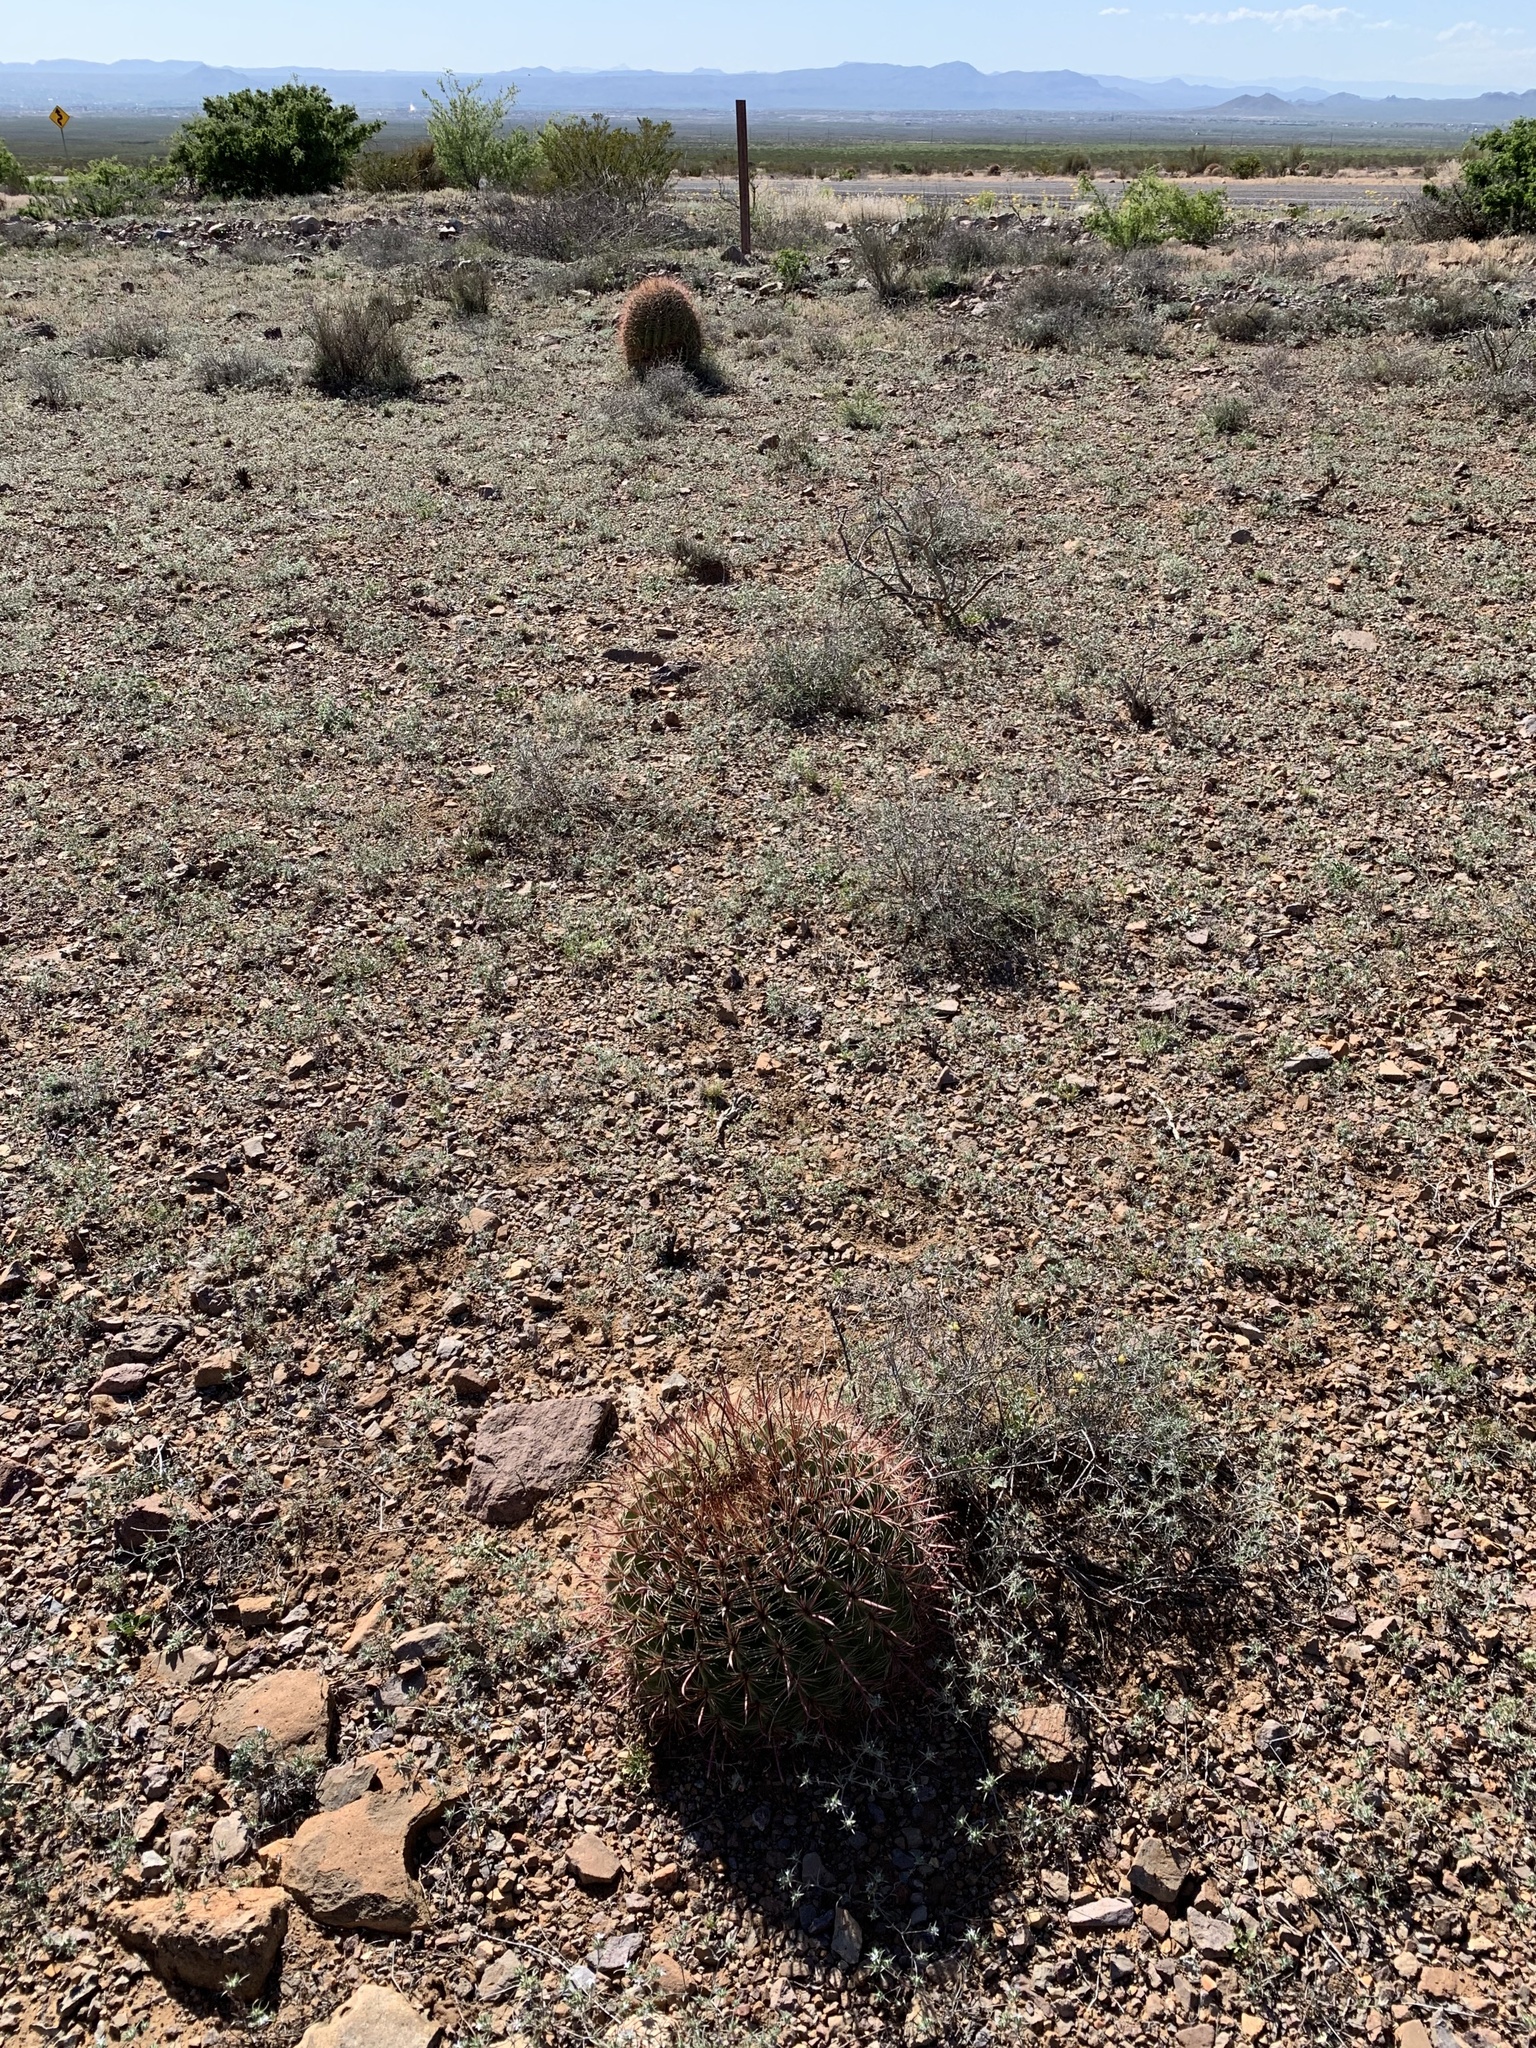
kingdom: Plantae
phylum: Tracheophyta
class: Magnoliopsida
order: Caryophyllales
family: Cactaceae
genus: Ferocactus
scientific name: Ferocactus wislizeni
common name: Candy barrel cactus
